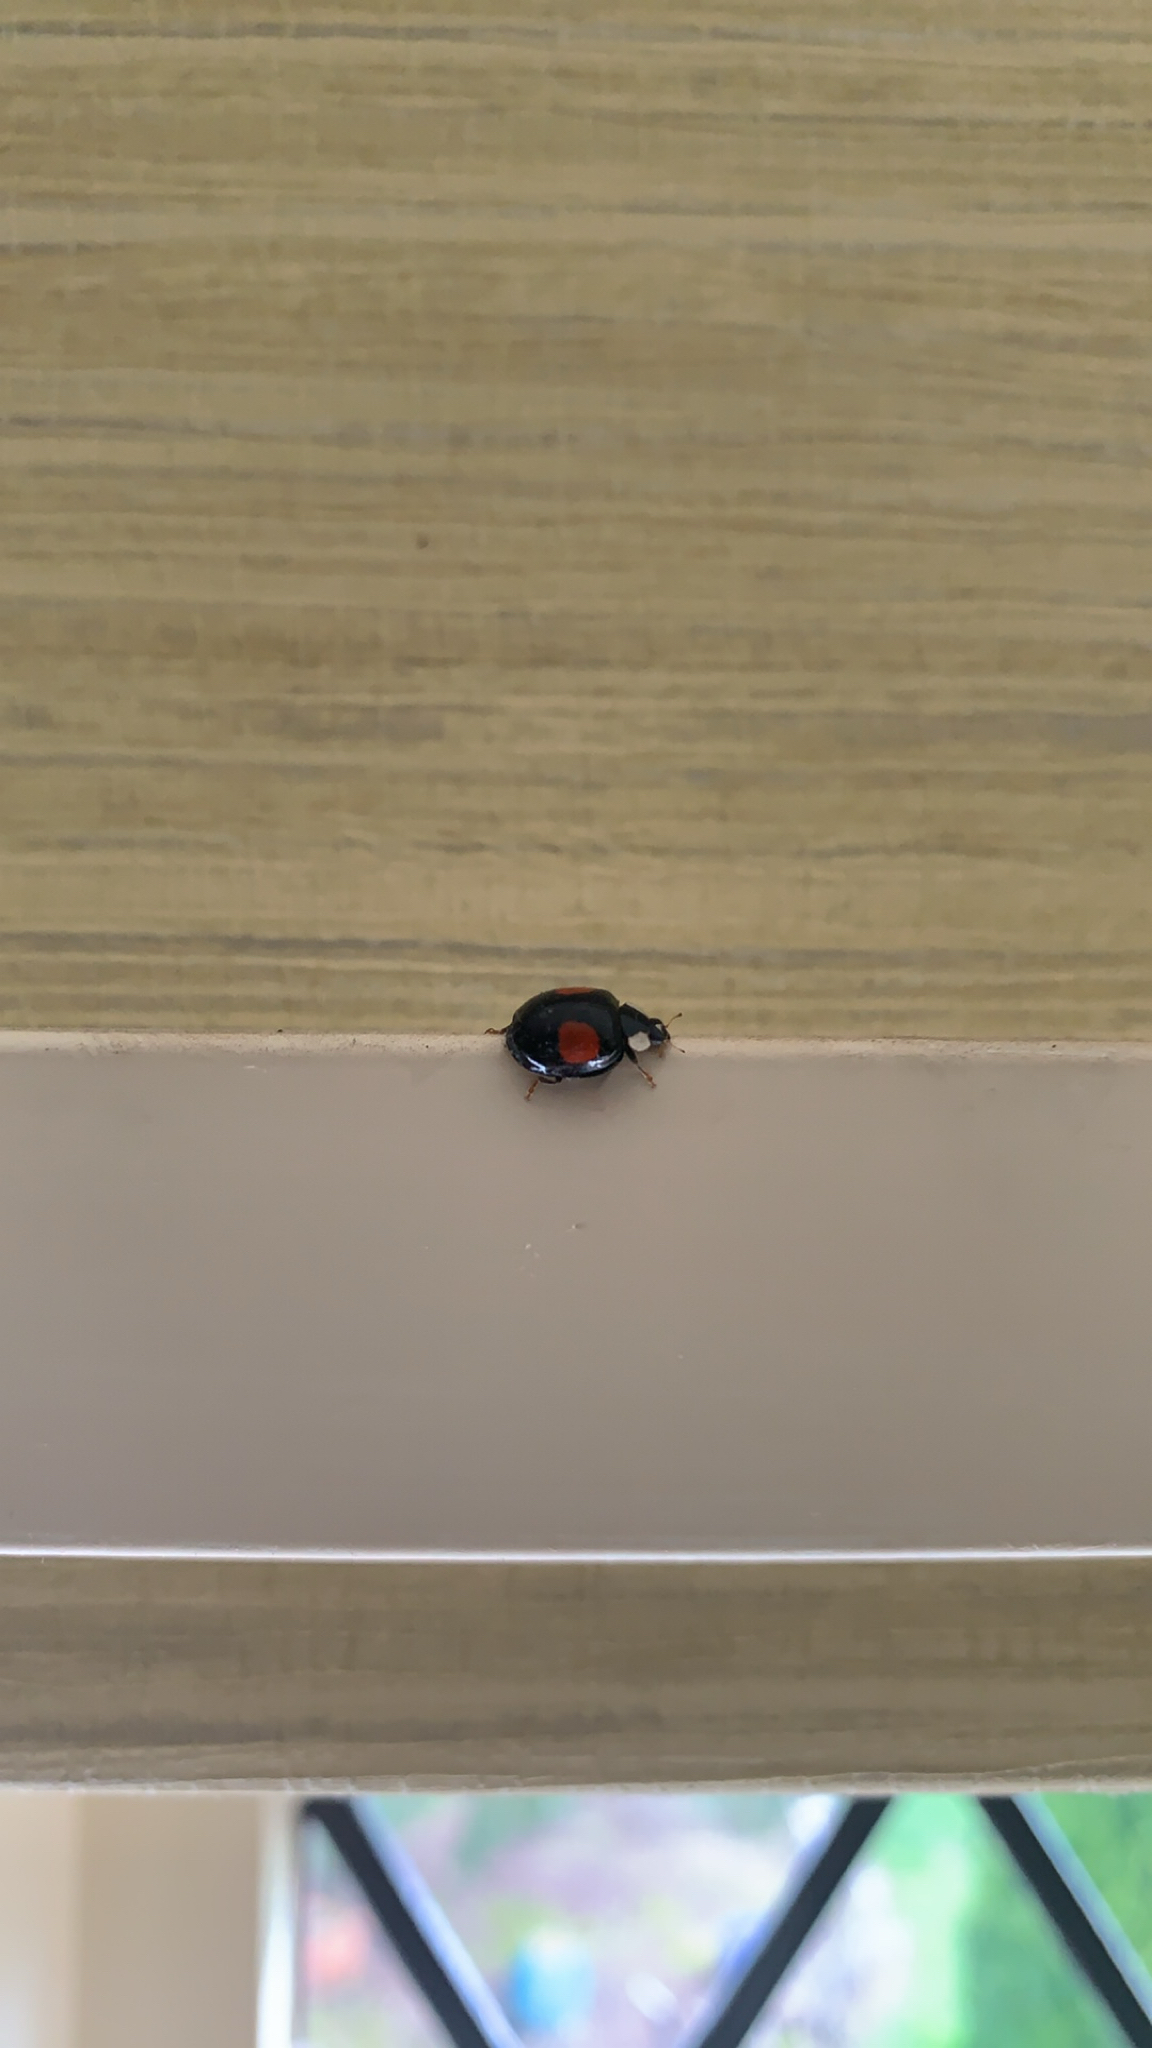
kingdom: Animalia
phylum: Arthropoda
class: Insecta
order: Coleoptera
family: Coccinellidae
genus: Harmonia
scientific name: Harmonia axyridis
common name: Harlequin ladybird
